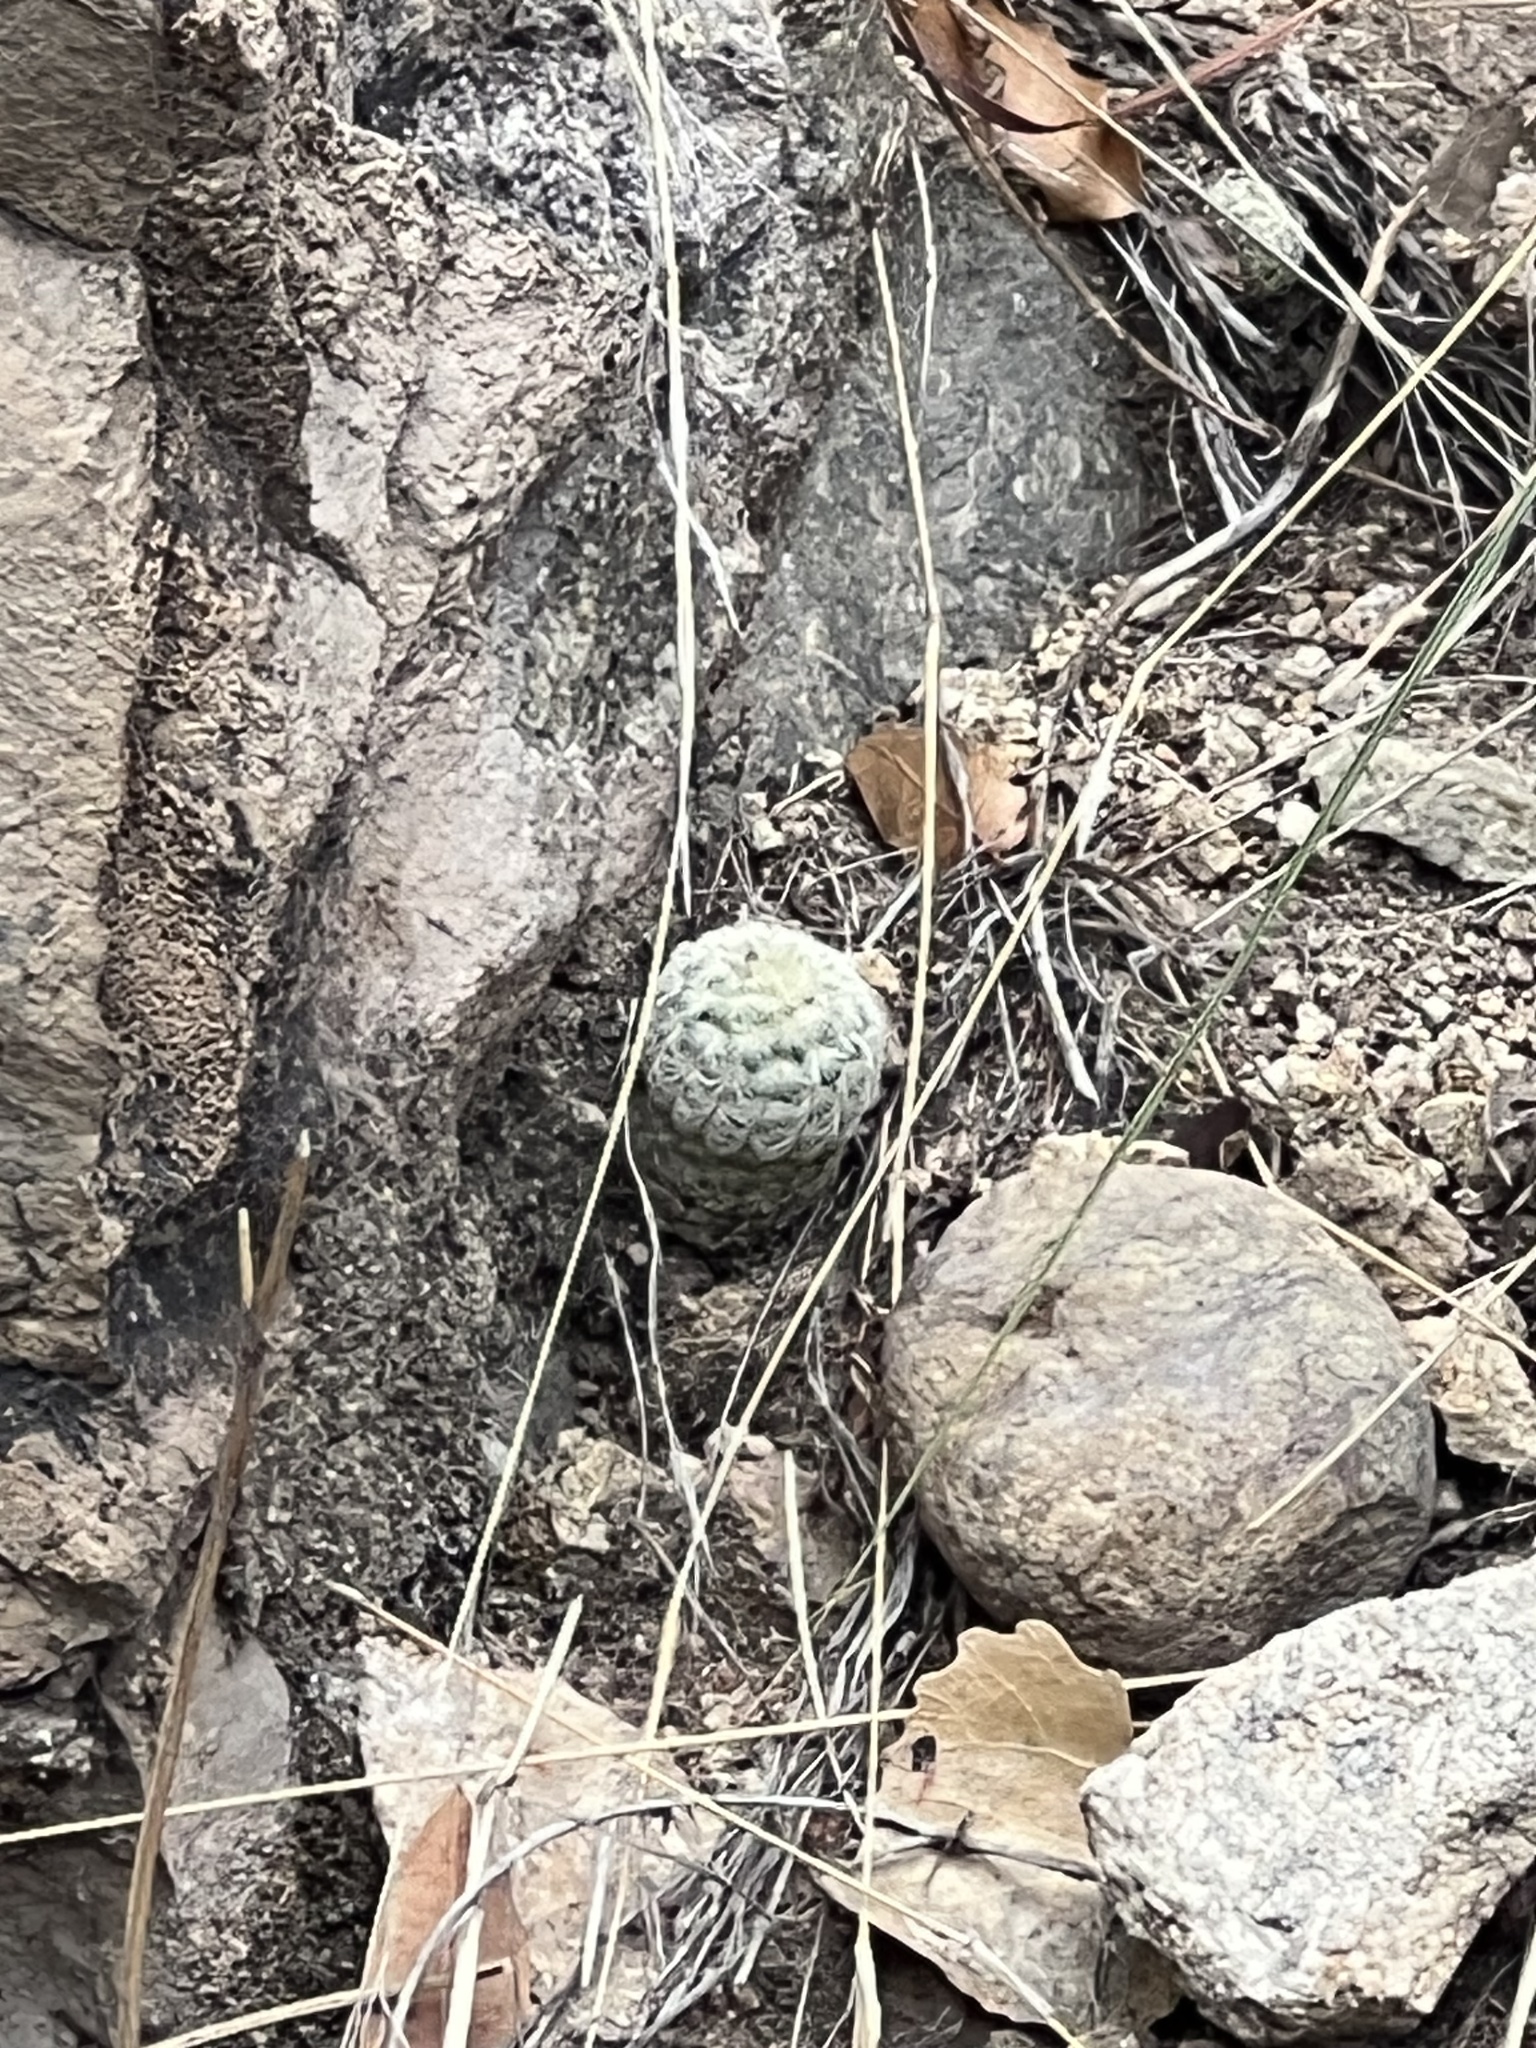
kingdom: Plantae
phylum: Tracheophyta
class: Magnoliopsida
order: Caryophyllales
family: Cactaceae
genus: Echinocereus
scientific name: Echinocereus rigidissimus
